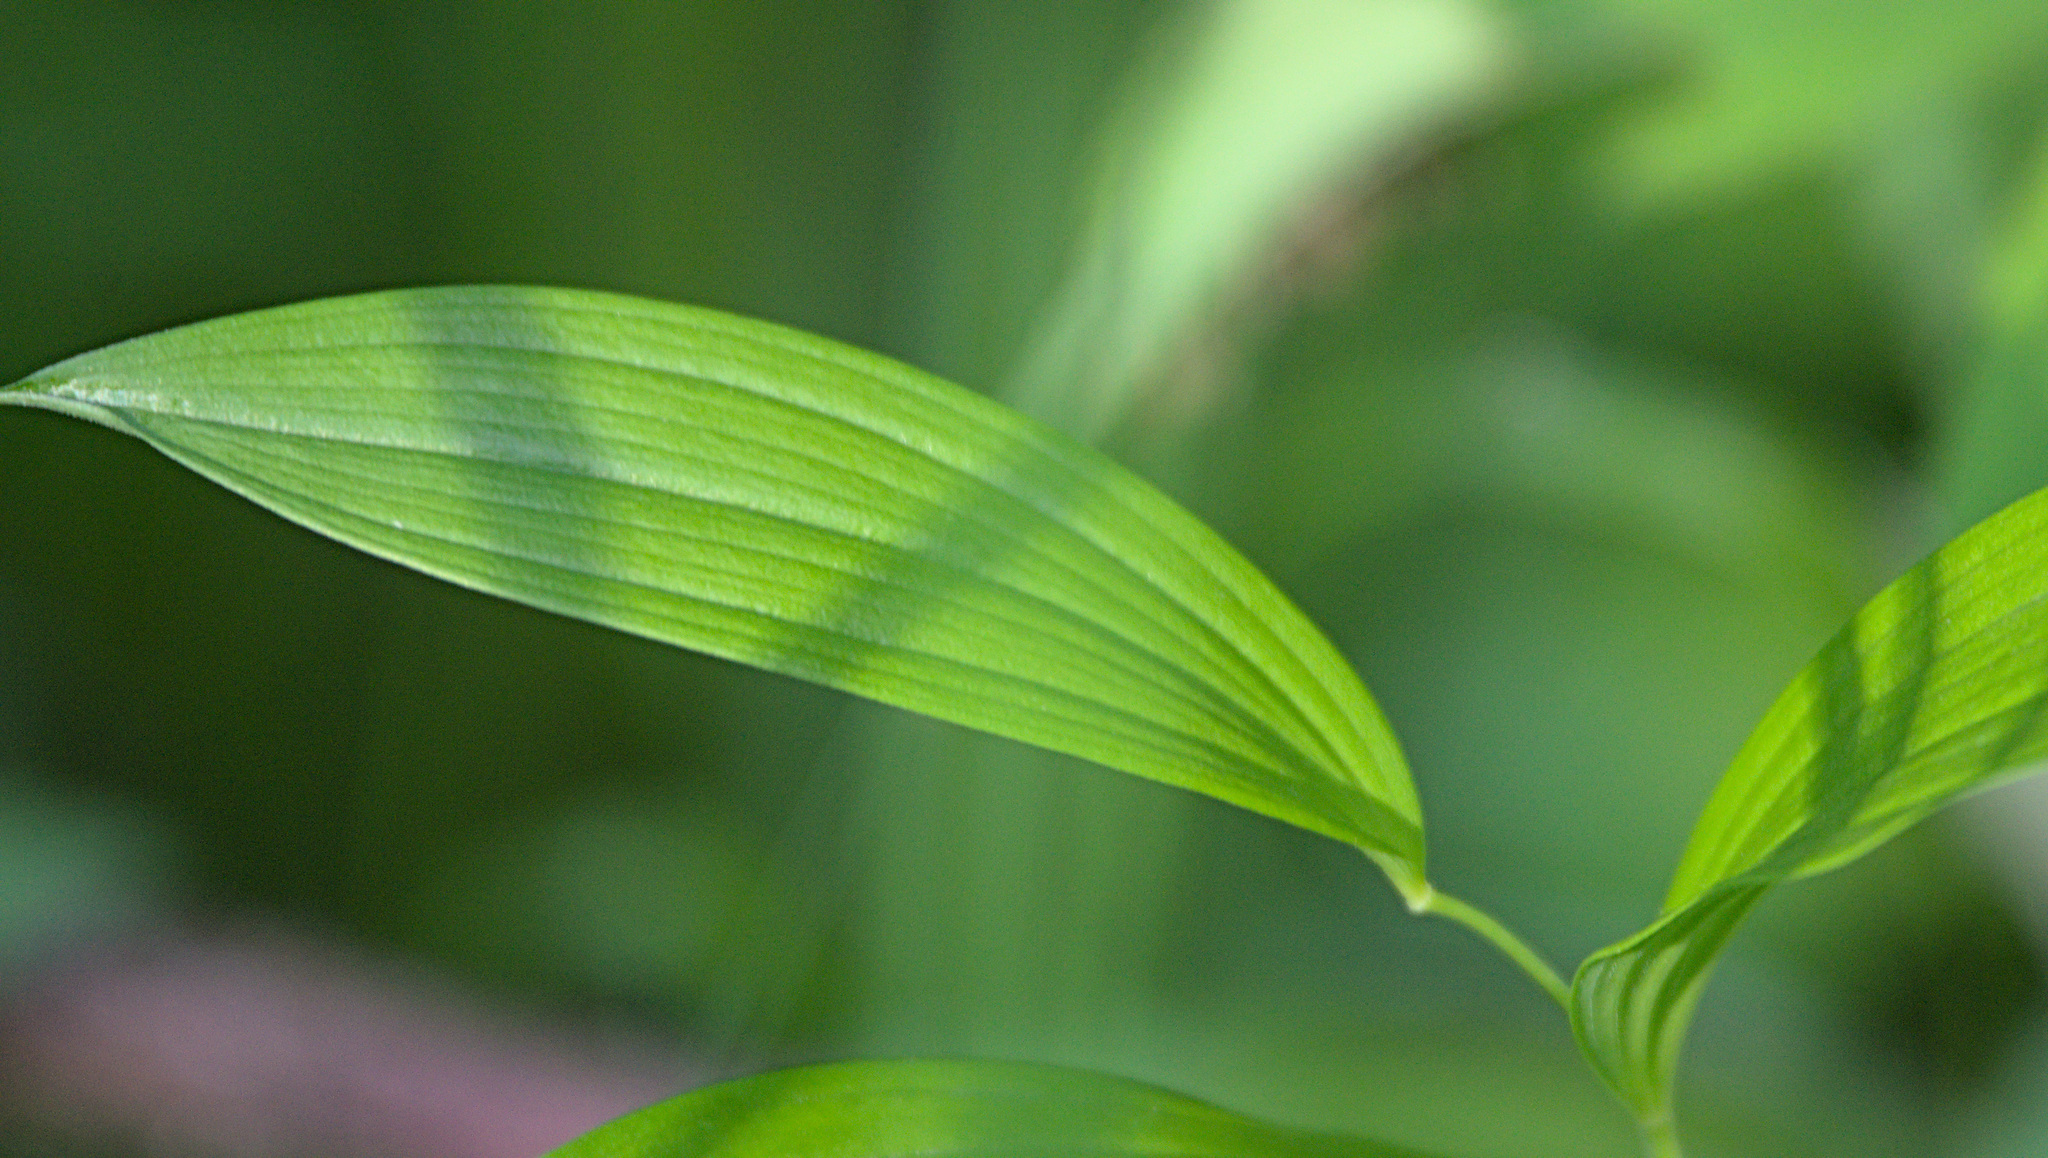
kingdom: Plantae
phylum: Tracheophyta
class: Liliopsida
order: Asparagales
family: Asparagaceae
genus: Polygonatum
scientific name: Polygonatum humile
